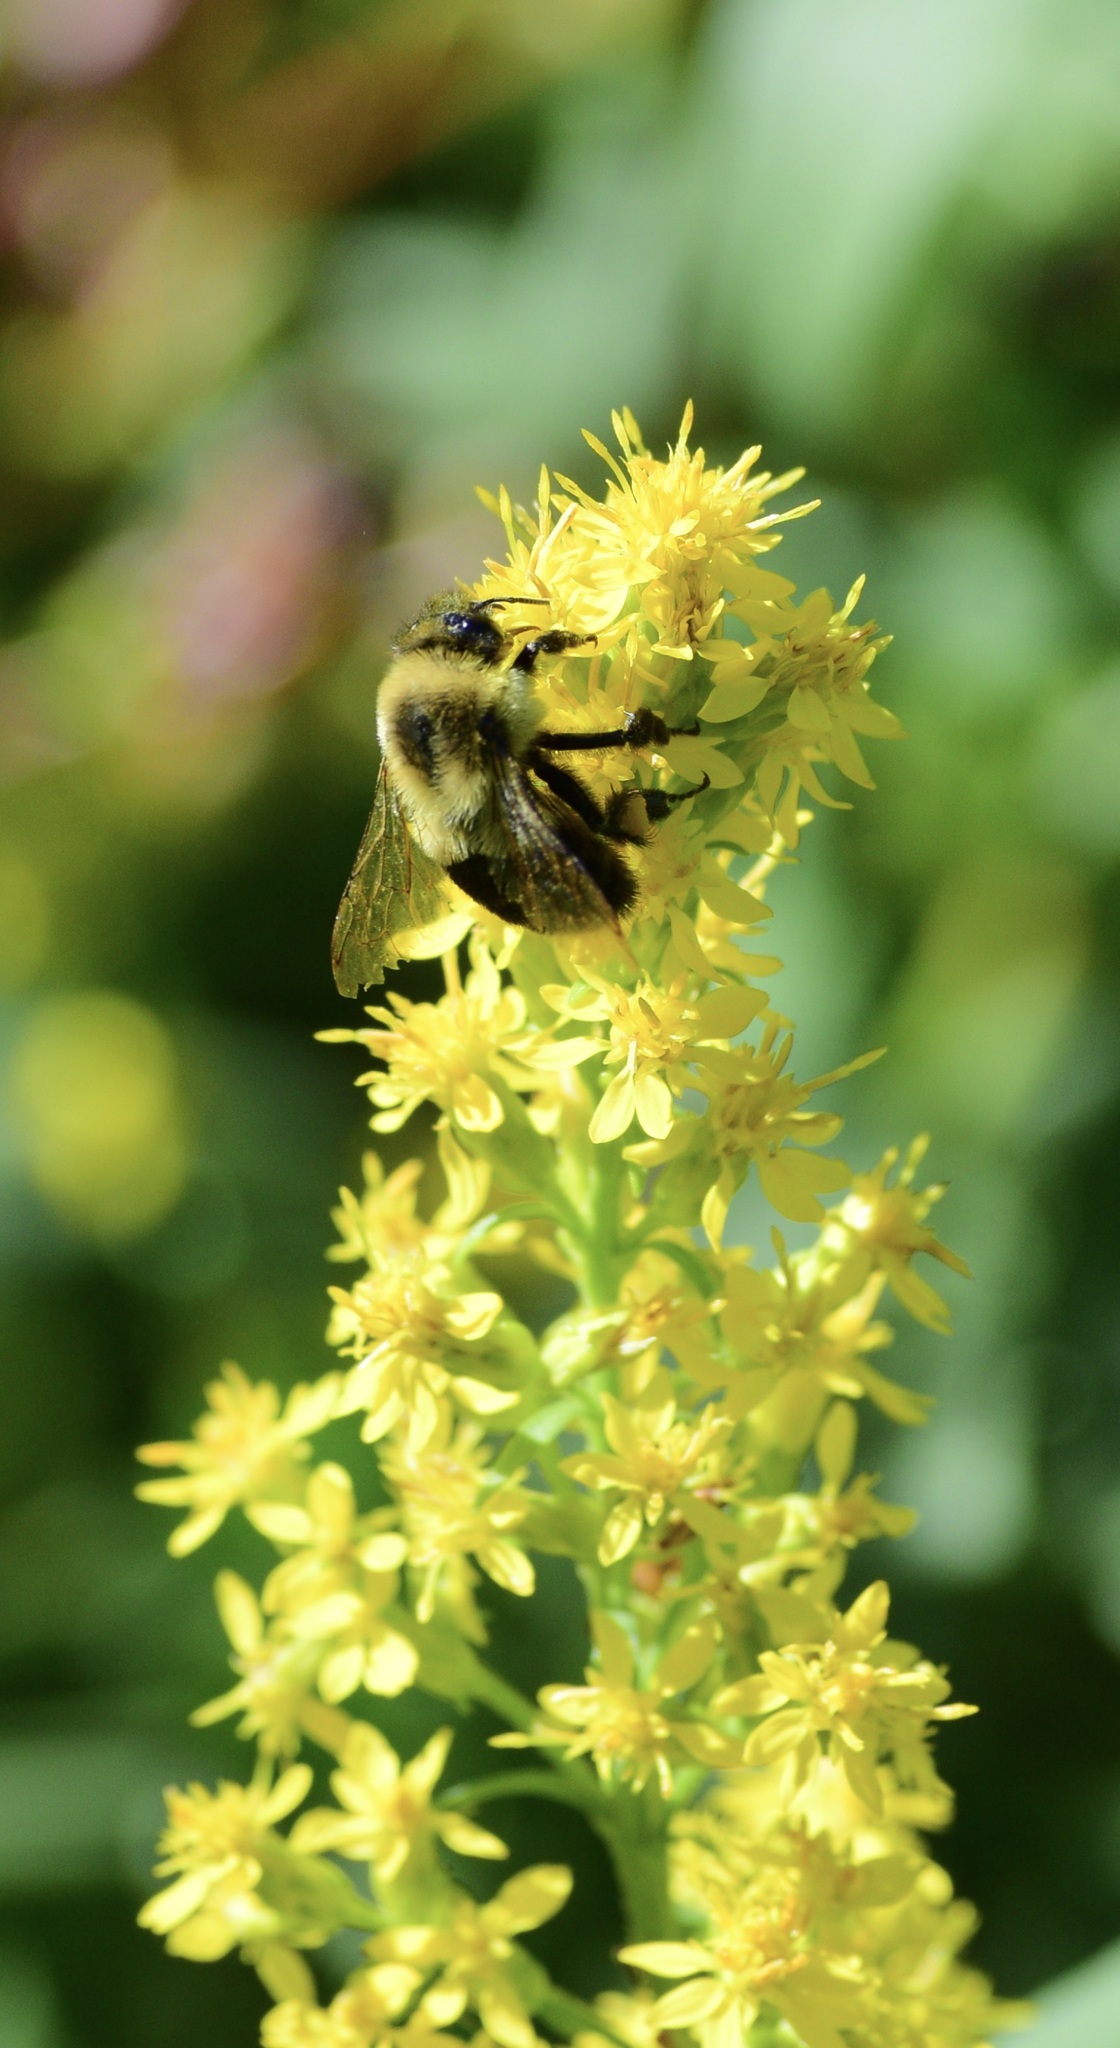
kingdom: Animalia
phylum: Arthropoda
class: Insecta
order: Hymenoptera
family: Apidae
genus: Bombus
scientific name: Bombus impatiens
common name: Common eastern bumble bee
